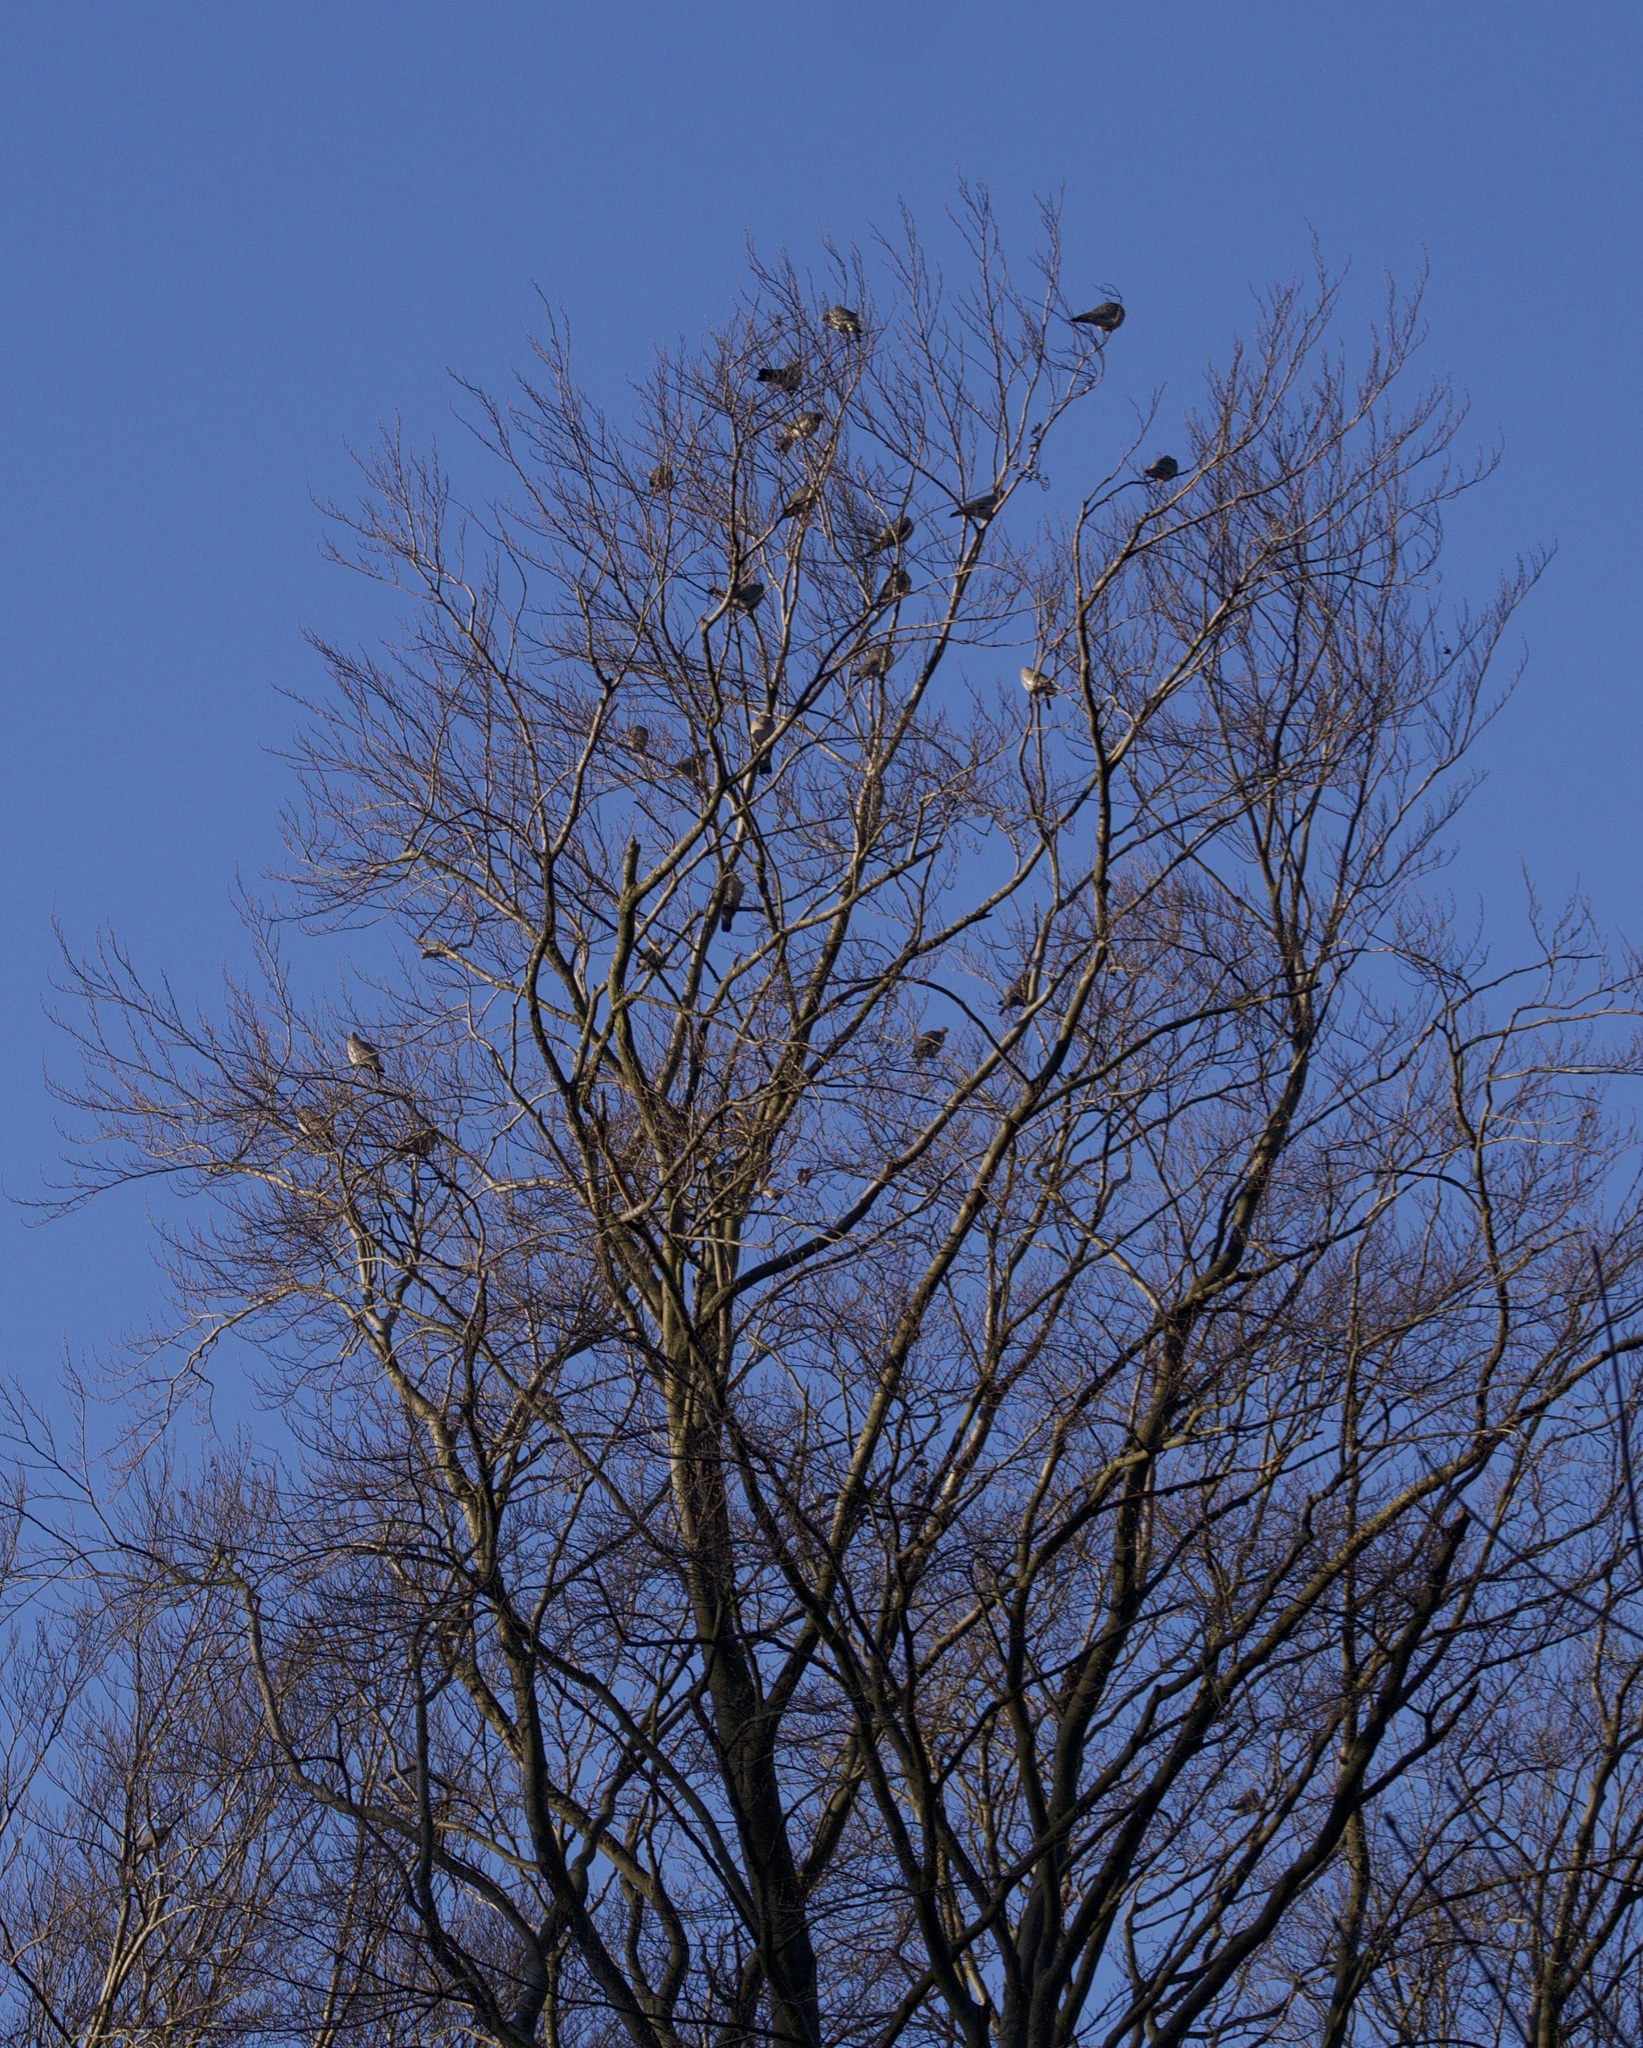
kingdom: Animalia
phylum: Chordata
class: Aves
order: Columbiformes
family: Columbidae
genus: Columba
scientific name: Columba palumbus
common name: Common wood pigeon
